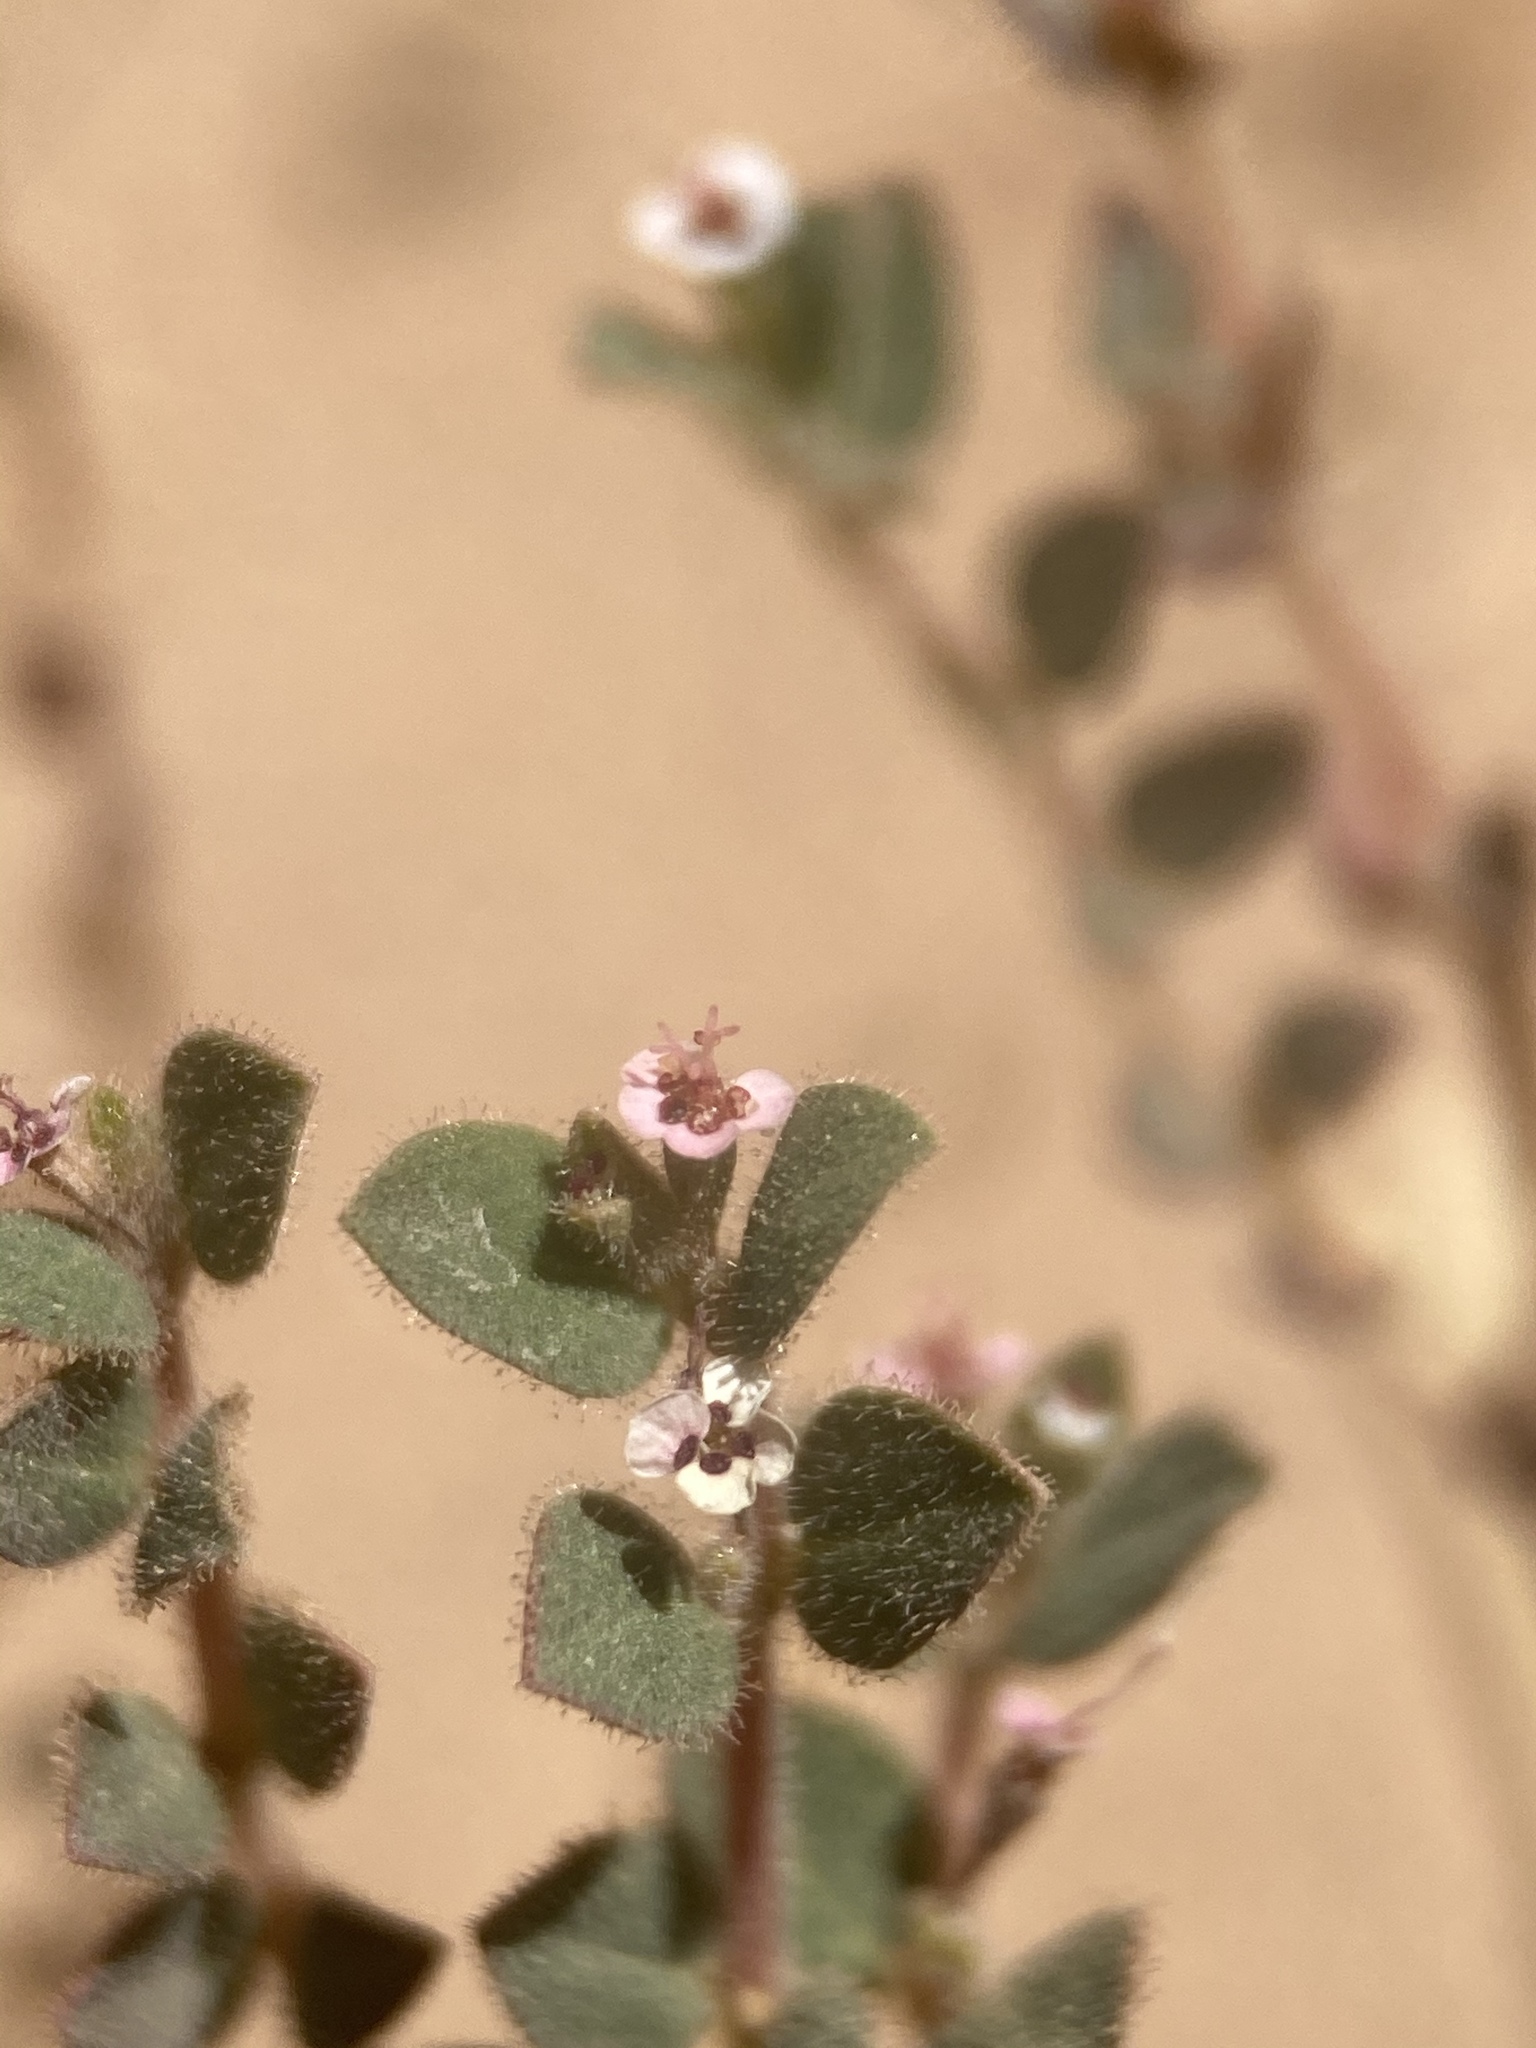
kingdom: Plantae
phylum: Tracheophyta
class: Magnoliopsida
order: Malpighiales
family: Euphorbiaceae
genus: Euphorbia
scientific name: Euphorbia arizonica
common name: Arizona spurge
